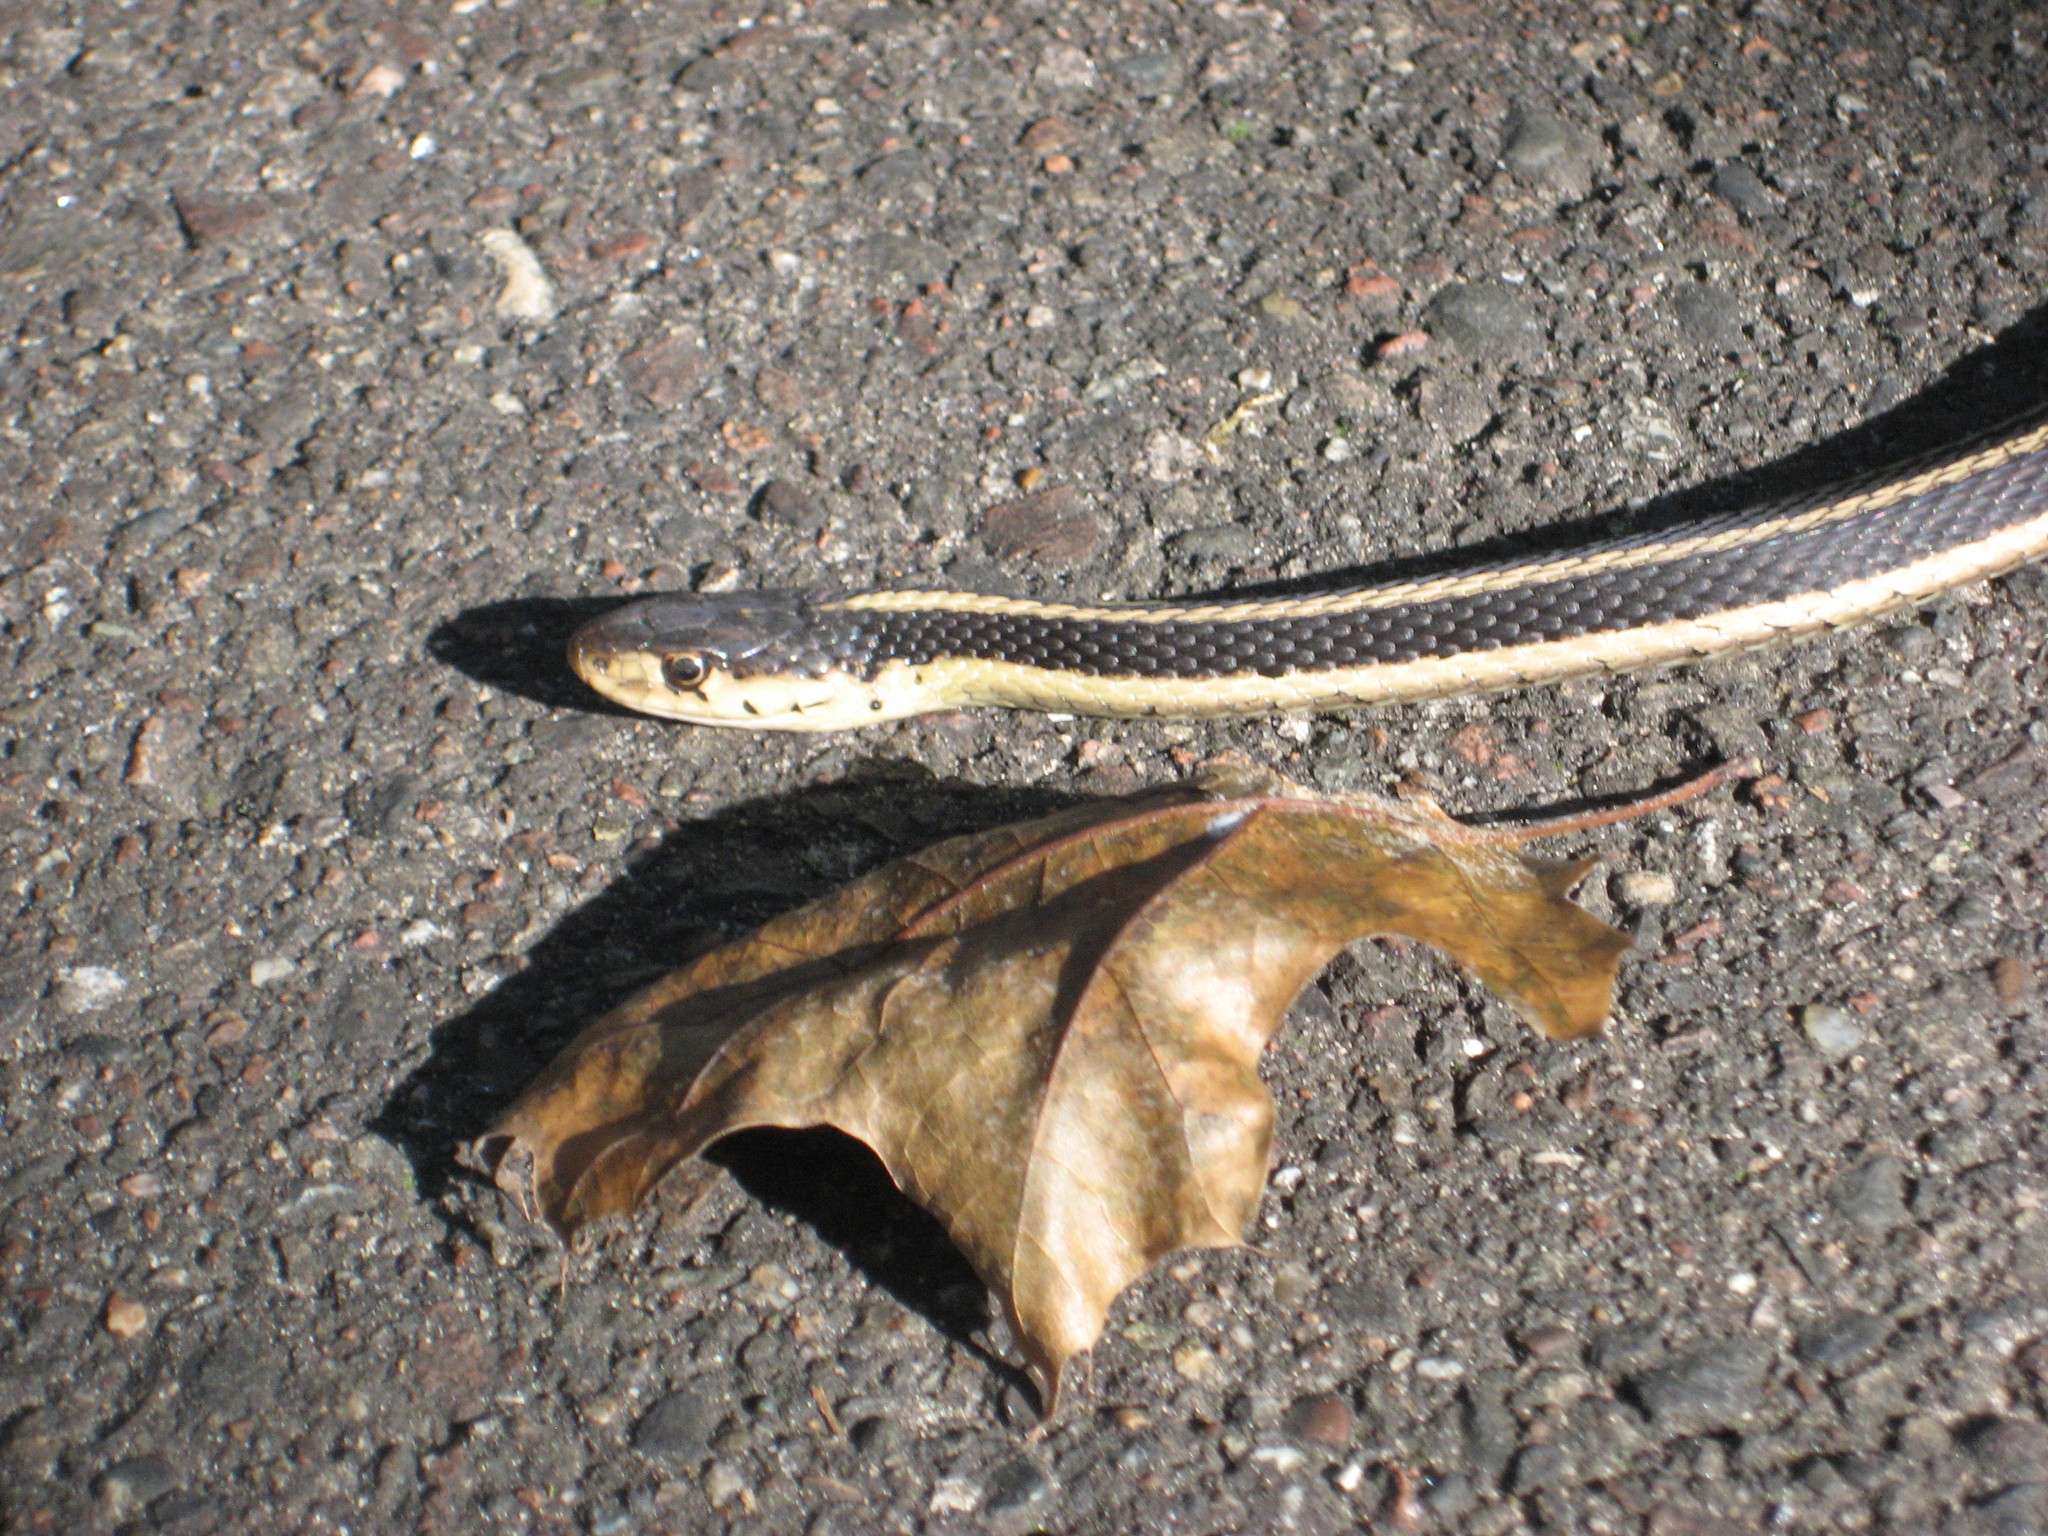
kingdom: Animalia
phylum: Chordata
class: Squamata
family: Colubridae
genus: Thamnophis
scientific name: Thamnophis sirtalis
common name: Common garter snake
